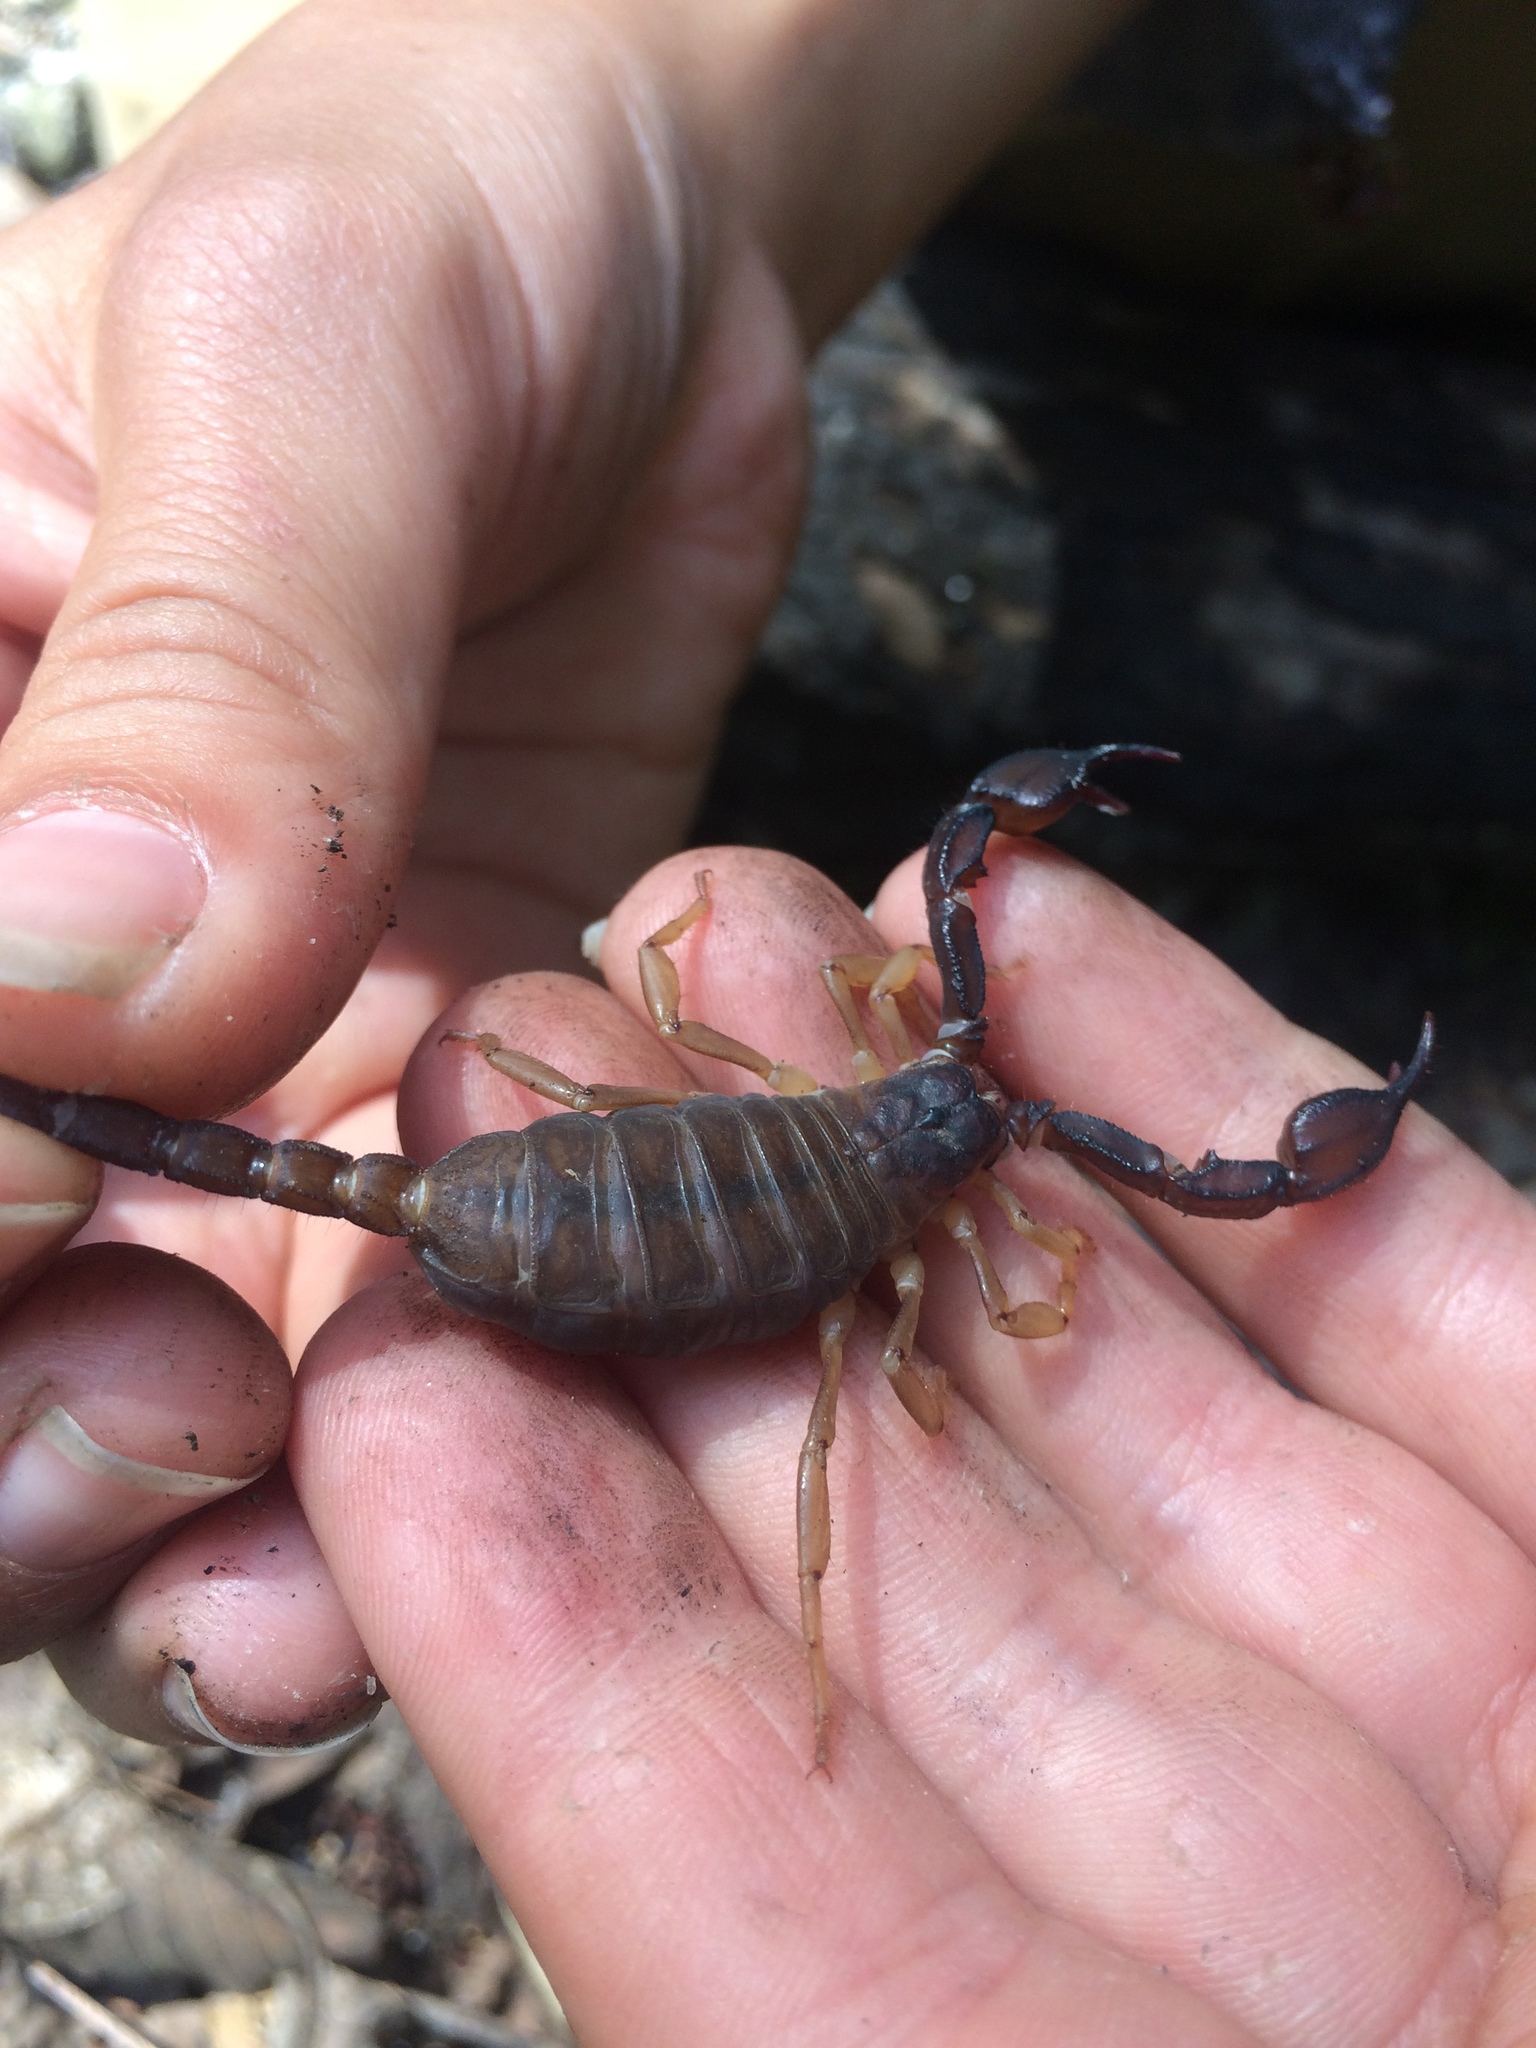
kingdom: Animalia
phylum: Arthropoda
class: Arachnida
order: Scorpiones
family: Chactidae
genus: Uroctonus
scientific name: Uroctonus mordax
